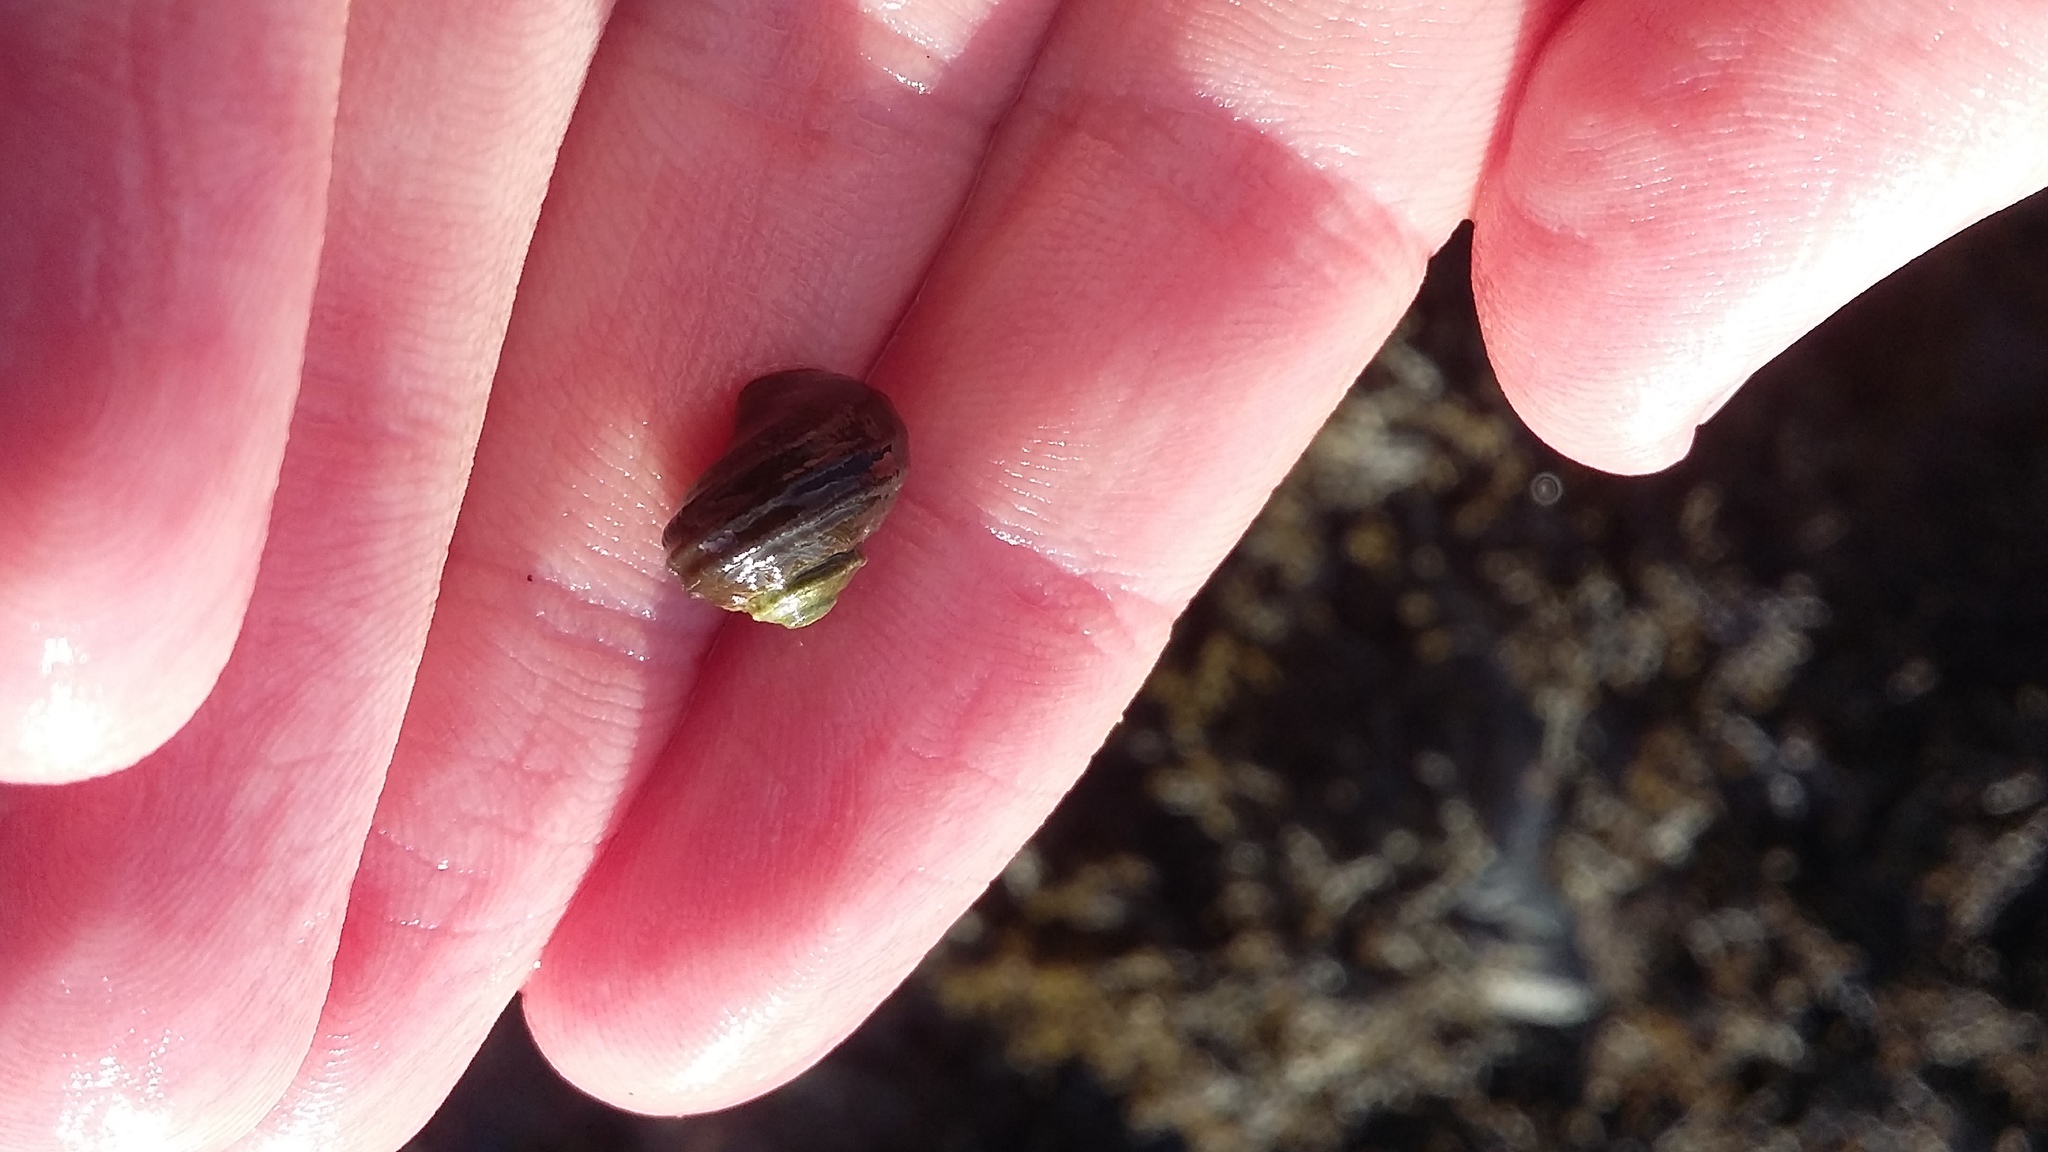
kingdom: Animalia
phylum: Mollusca
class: Gastropoda
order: Trochida
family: Turbinidae
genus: Lunella
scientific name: Lunella smaragda
